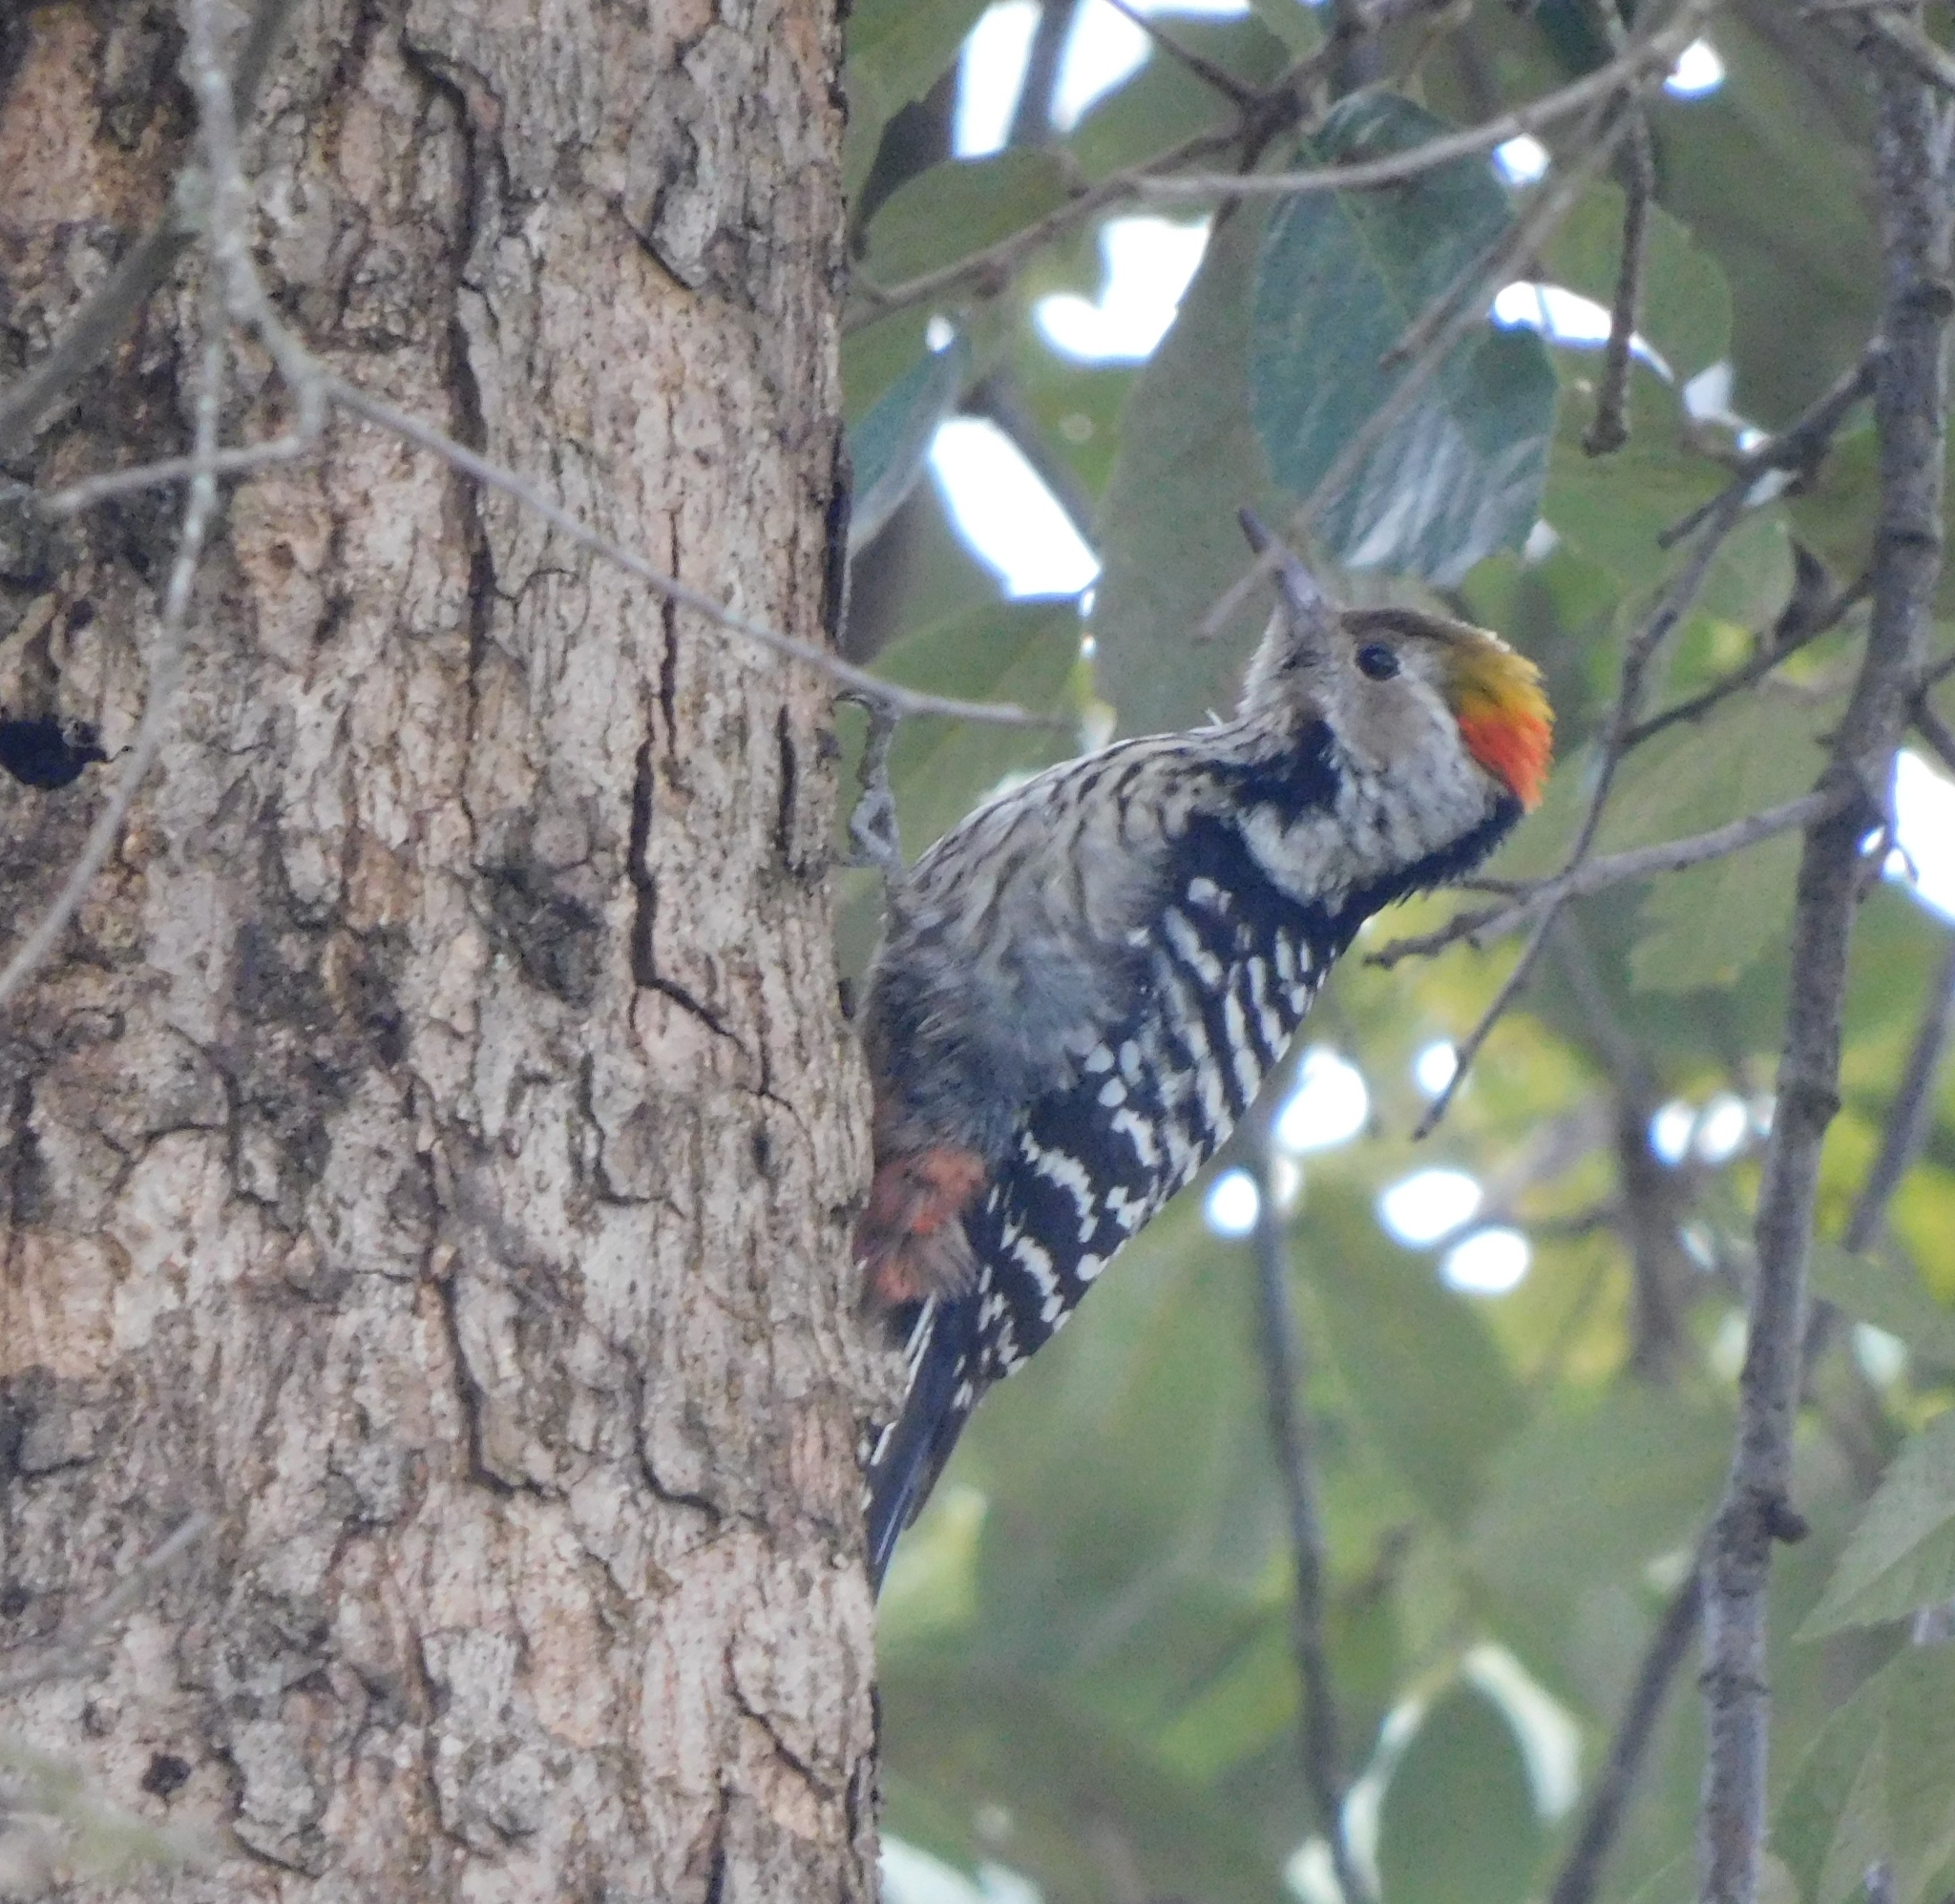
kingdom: Animalia
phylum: Chordata
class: Aves
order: Piciformes
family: Picidae
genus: Dendrocoptes
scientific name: Dendrocoptes auriceps
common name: Brown-fronted woodpecker
